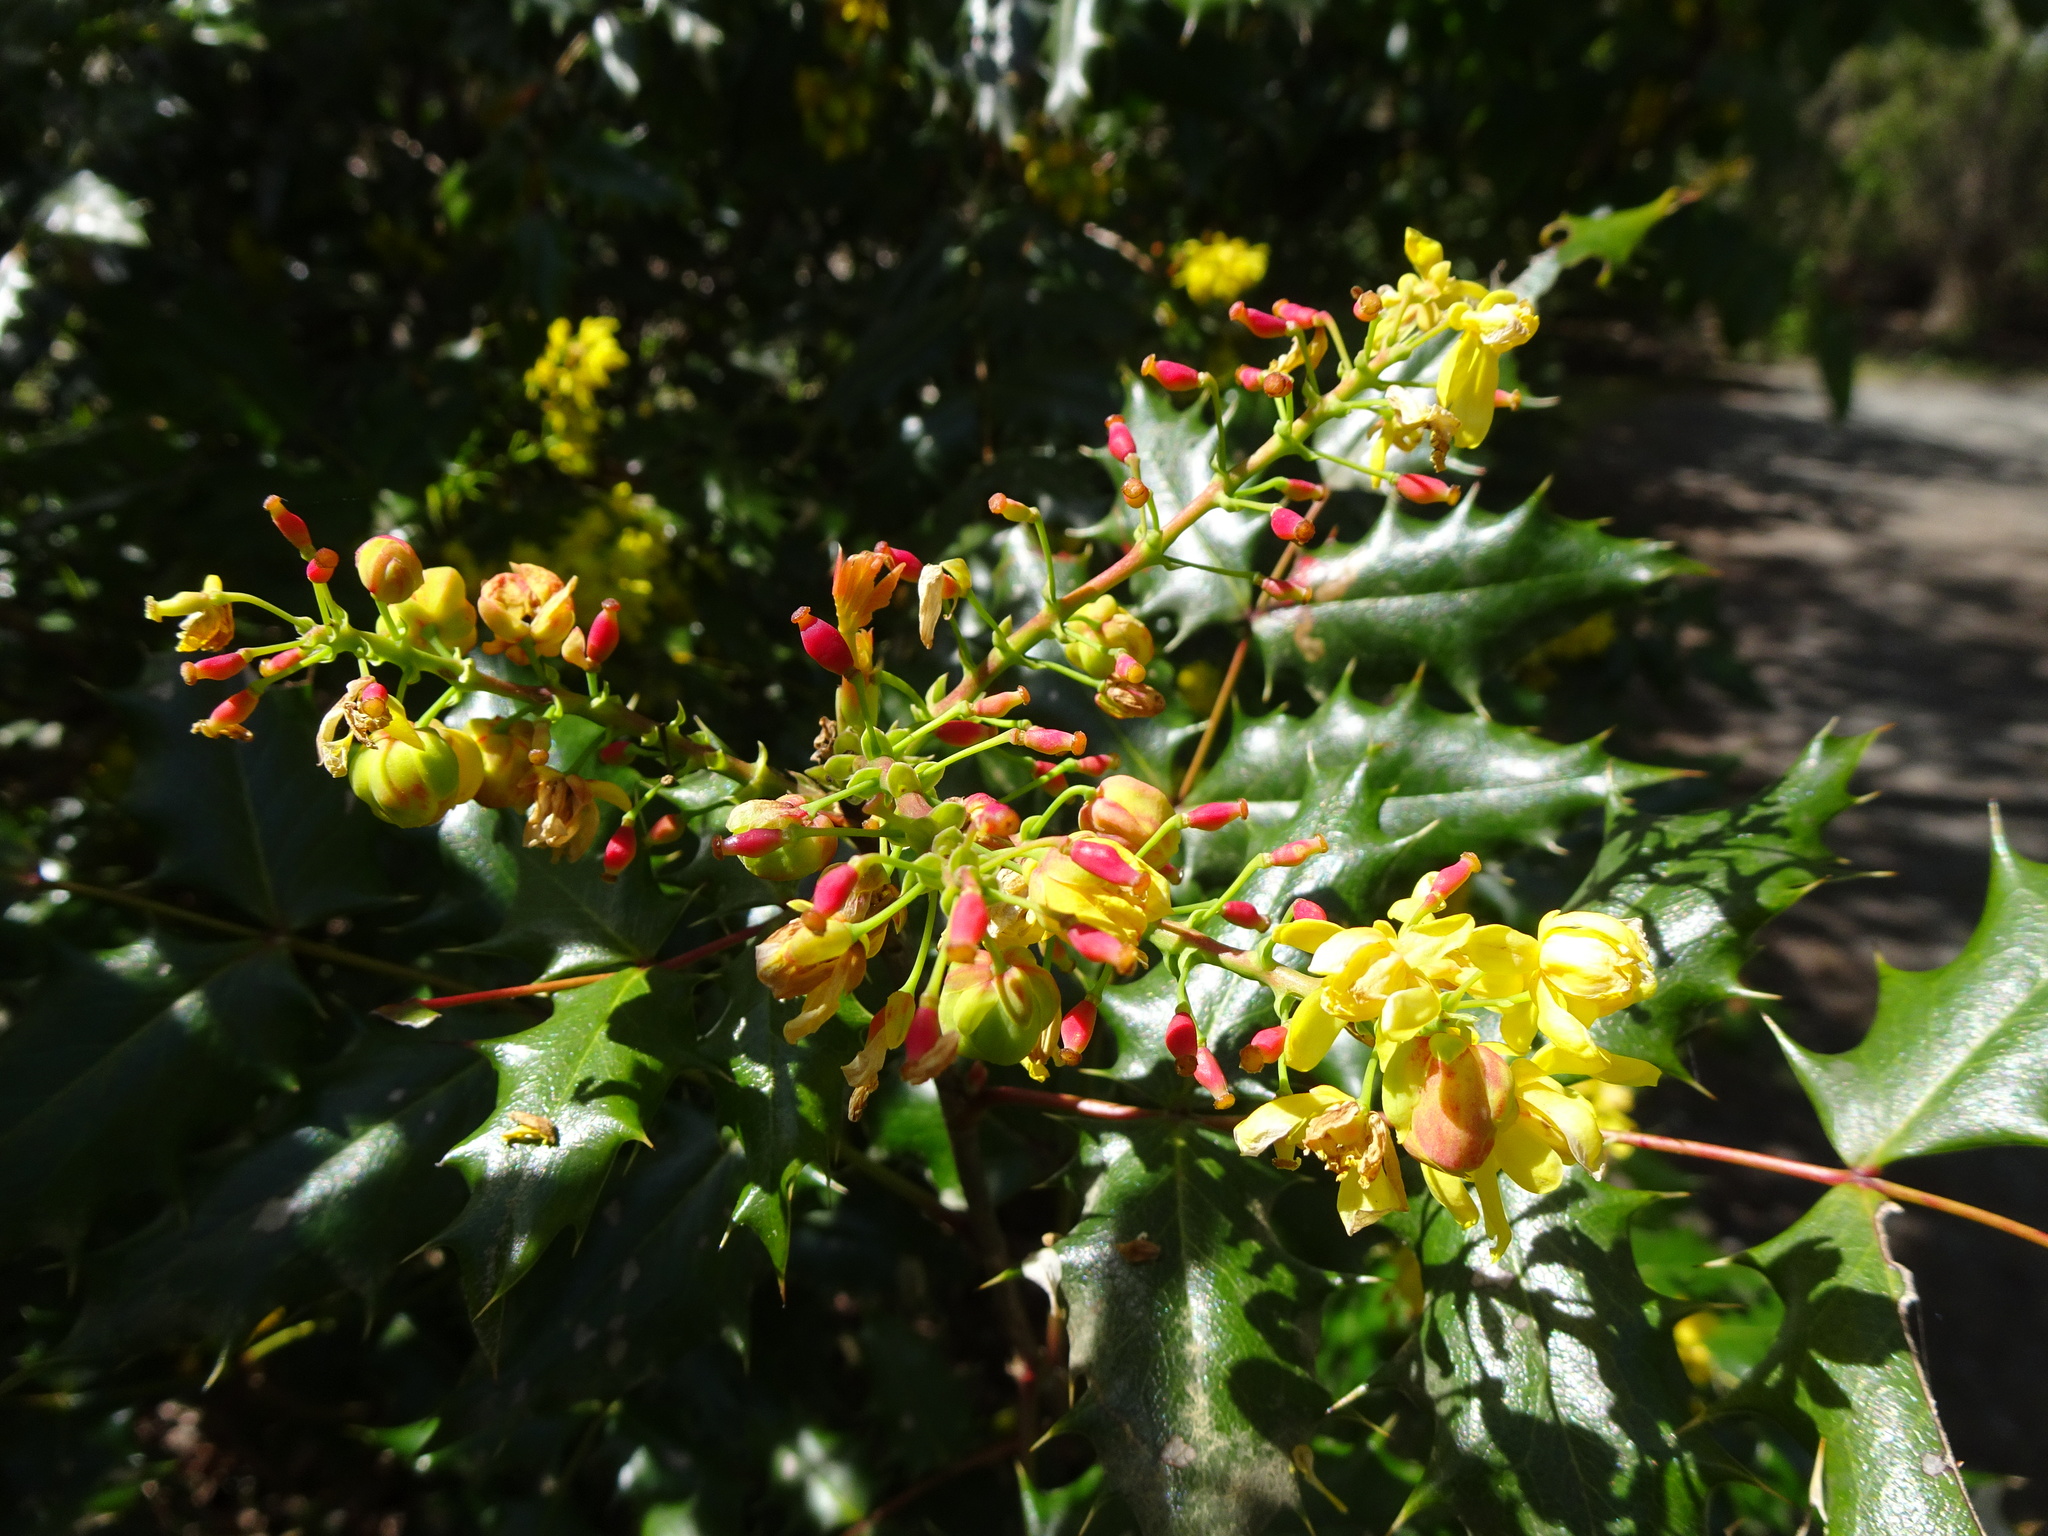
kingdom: Plantae
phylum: Tracheophyta
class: Magnoliopsida
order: Ranunculales
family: Berberidaceae
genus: Mahonia
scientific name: Mahonia aquifolium
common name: Oregon-grape
